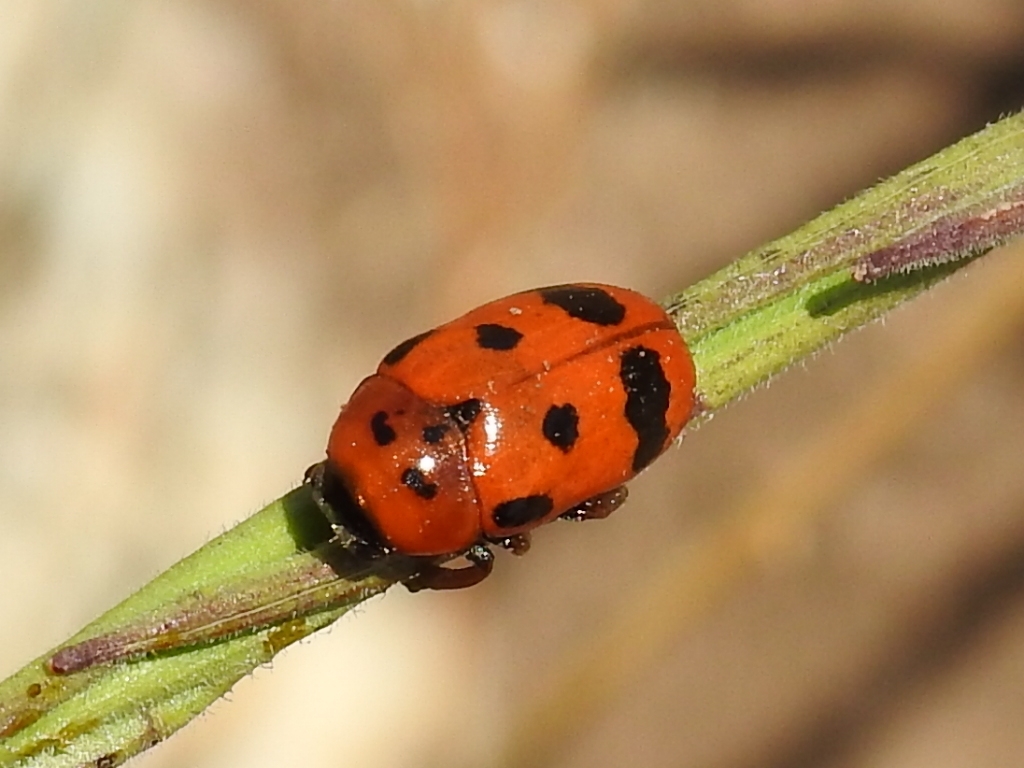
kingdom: Animalia
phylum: Arthropoda
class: Insecta
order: Coleoptera
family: Chrysomelidae
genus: Clytra
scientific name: Clytra atraphaxidis
